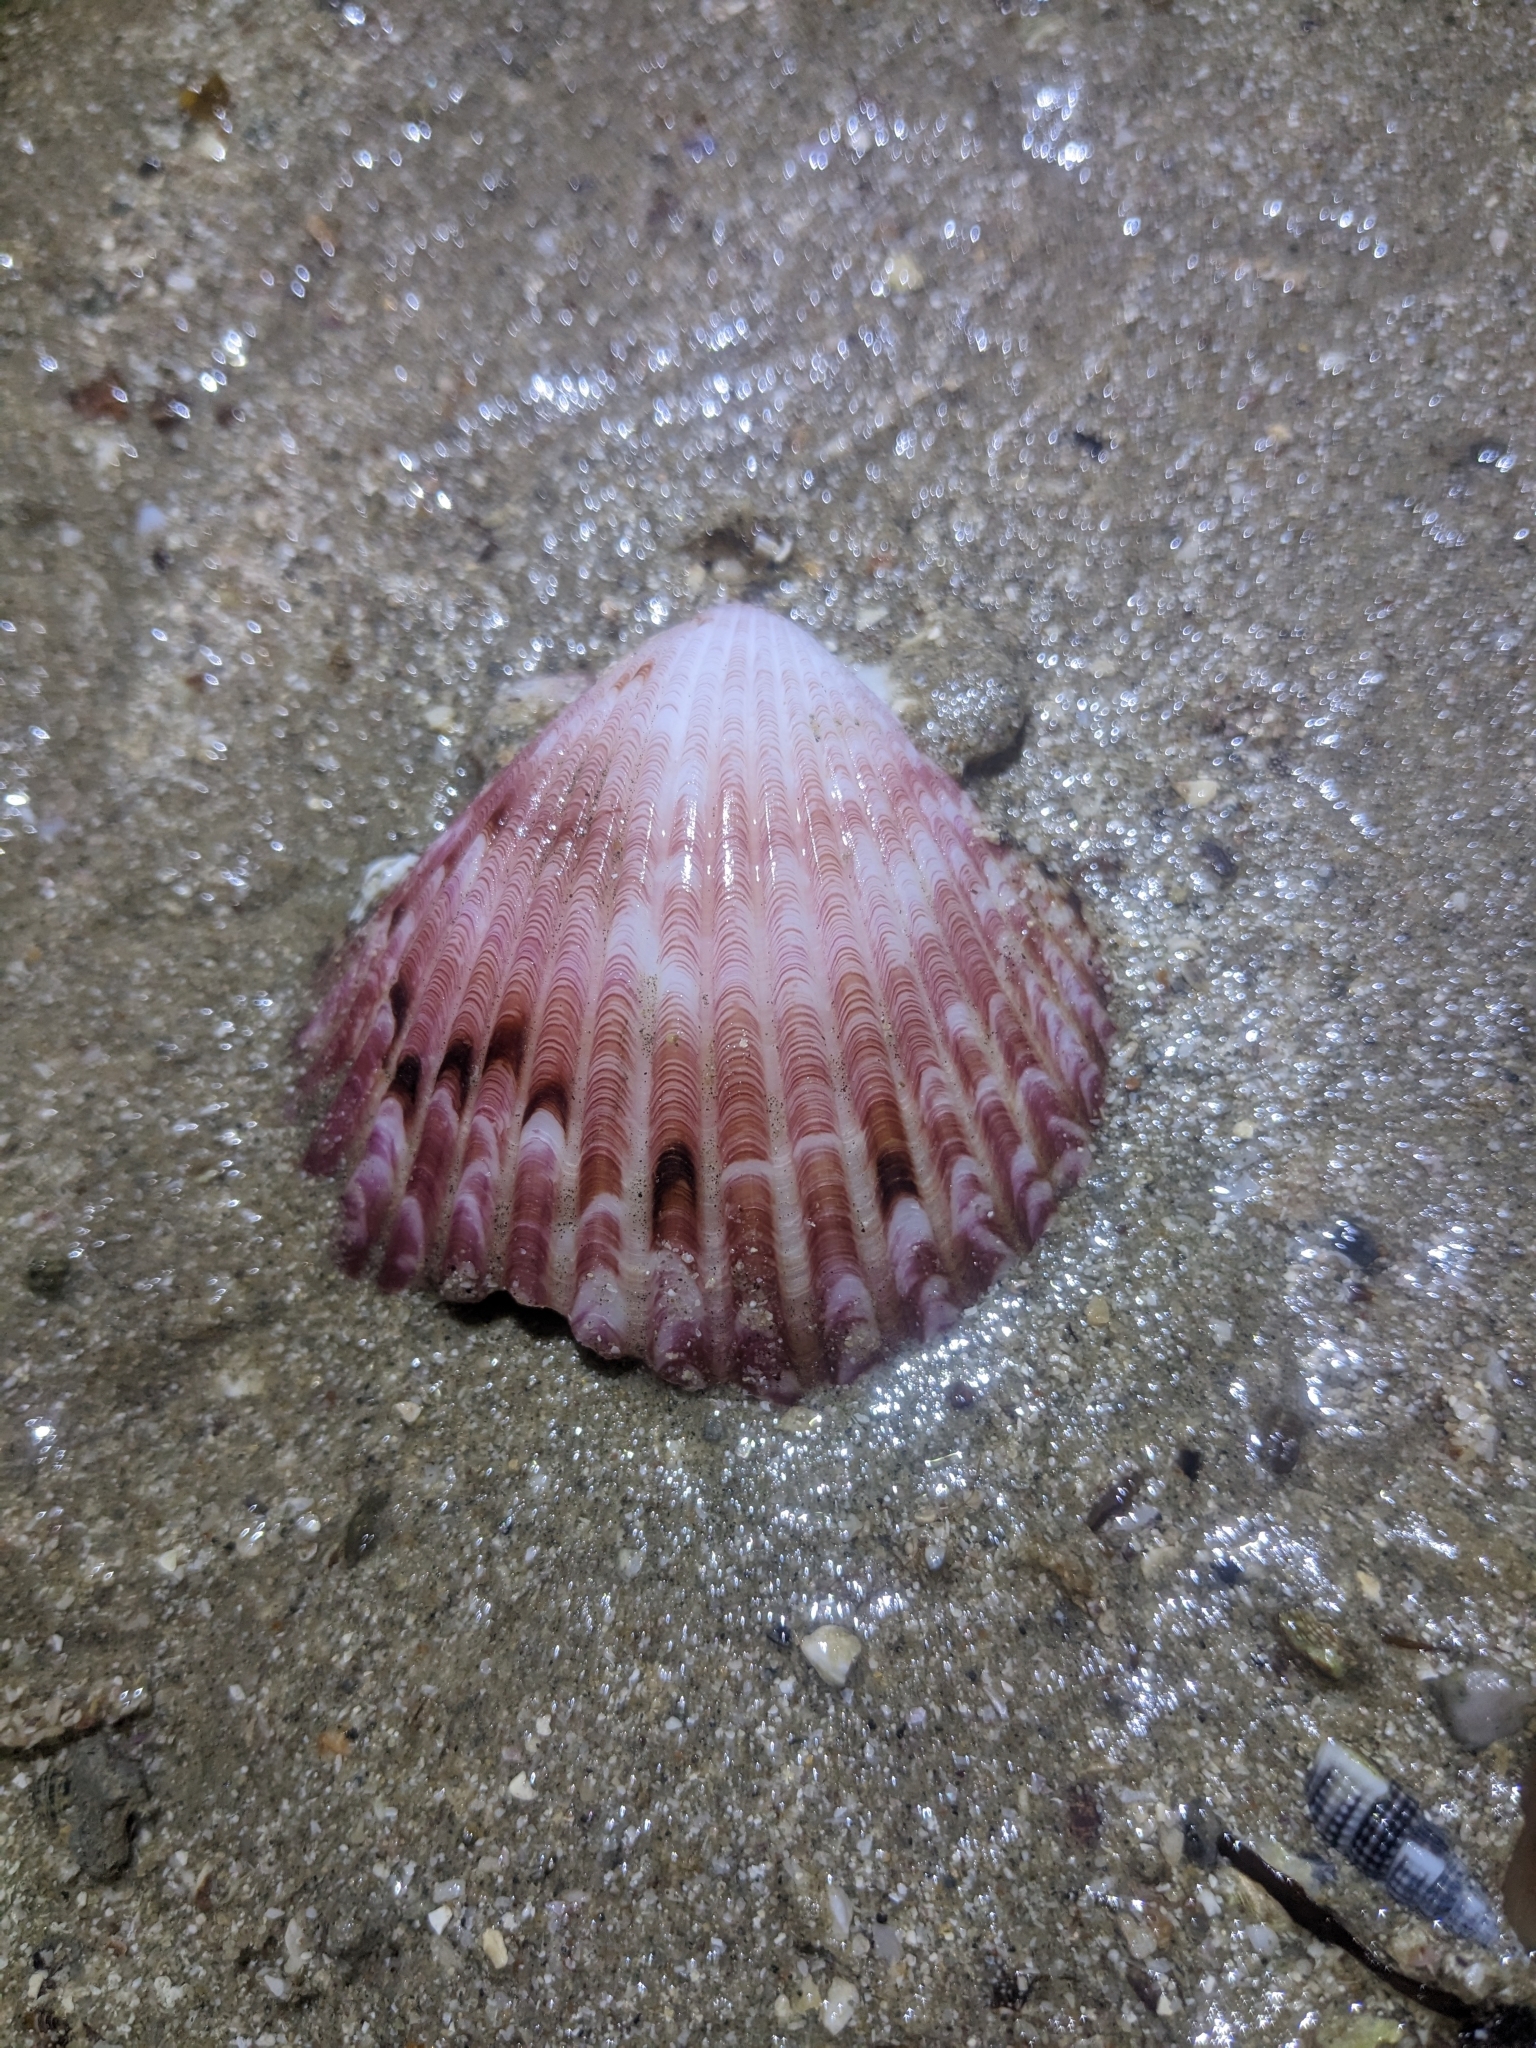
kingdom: Animalia
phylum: Mollusca
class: Bivalvia
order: Pectinida
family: Pectinidae
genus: Argopecten
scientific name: Argopecten ventricosus
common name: Catarina scallop
